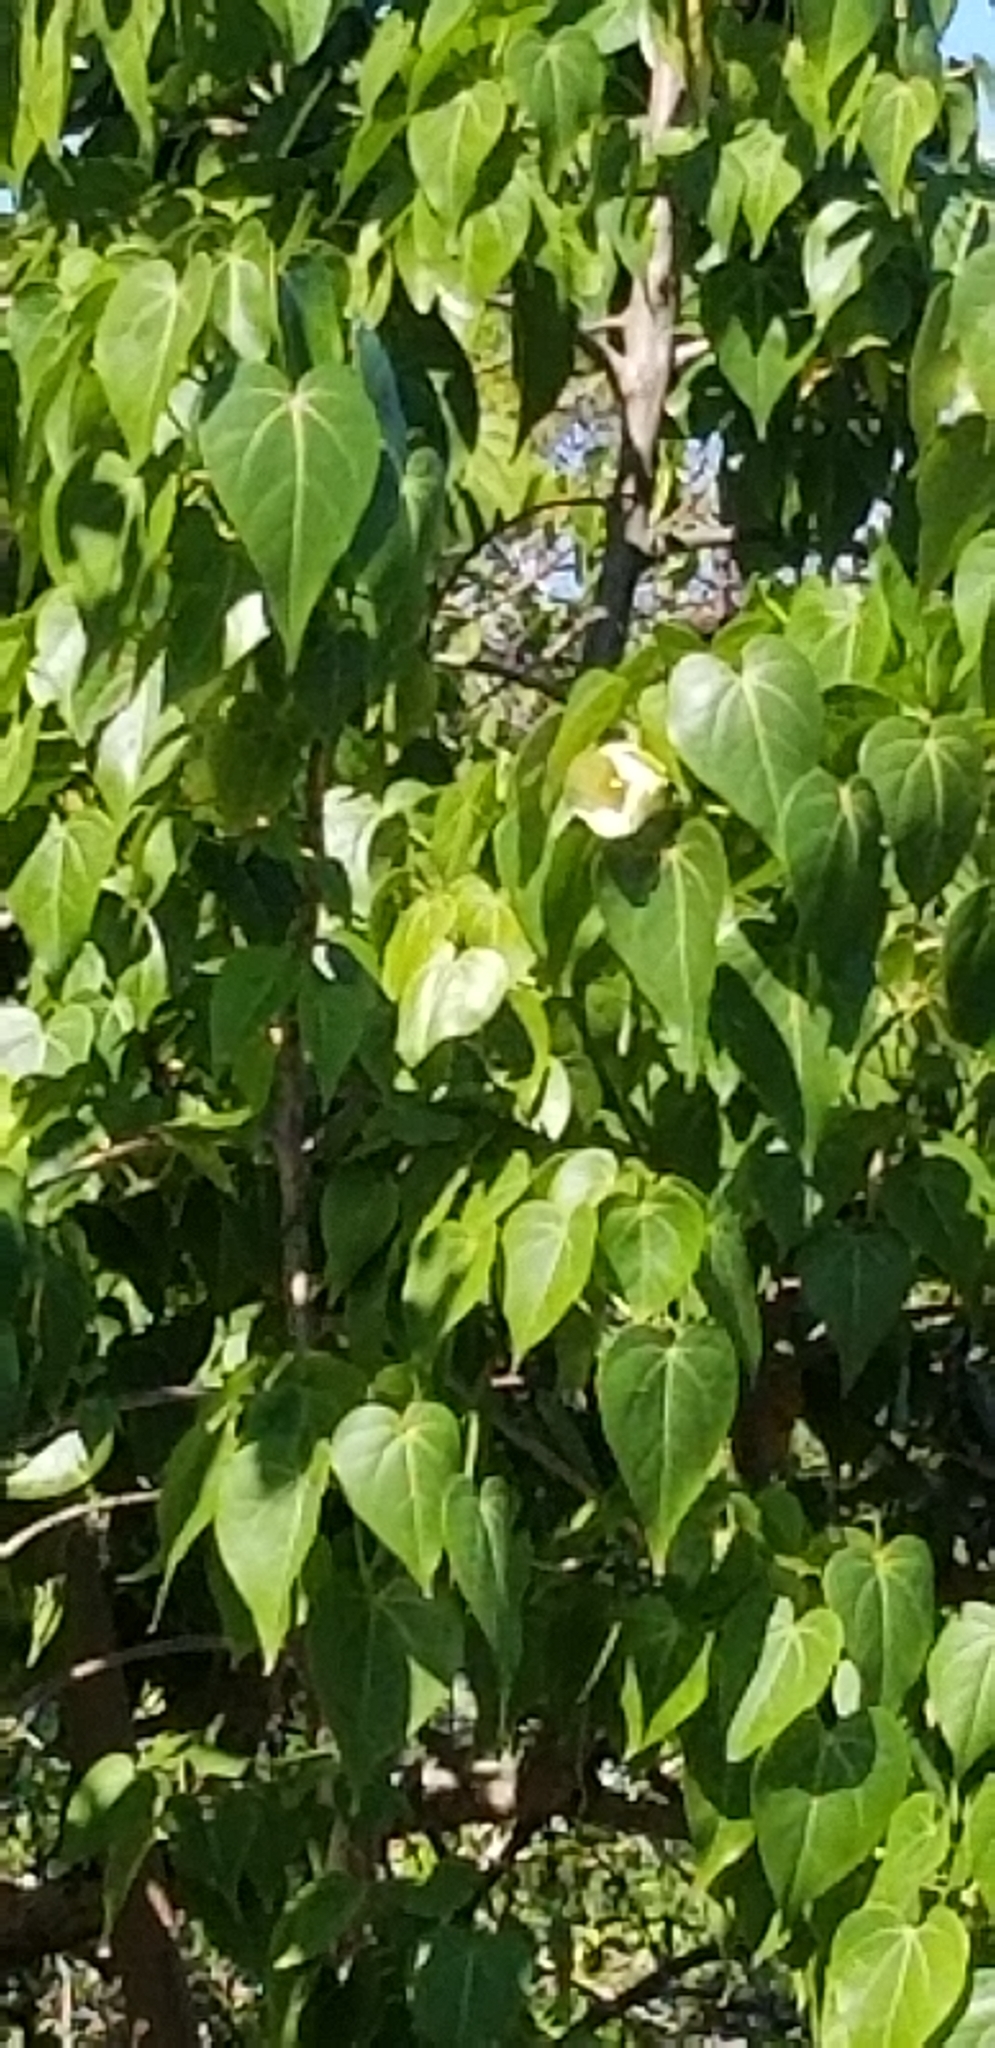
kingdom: Plantae
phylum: Tracheophyta
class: Magnoliopsida
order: Malvales
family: Malvaceae
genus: Thespesia
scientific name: Thespesia populnea
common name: Seaside mahoe
